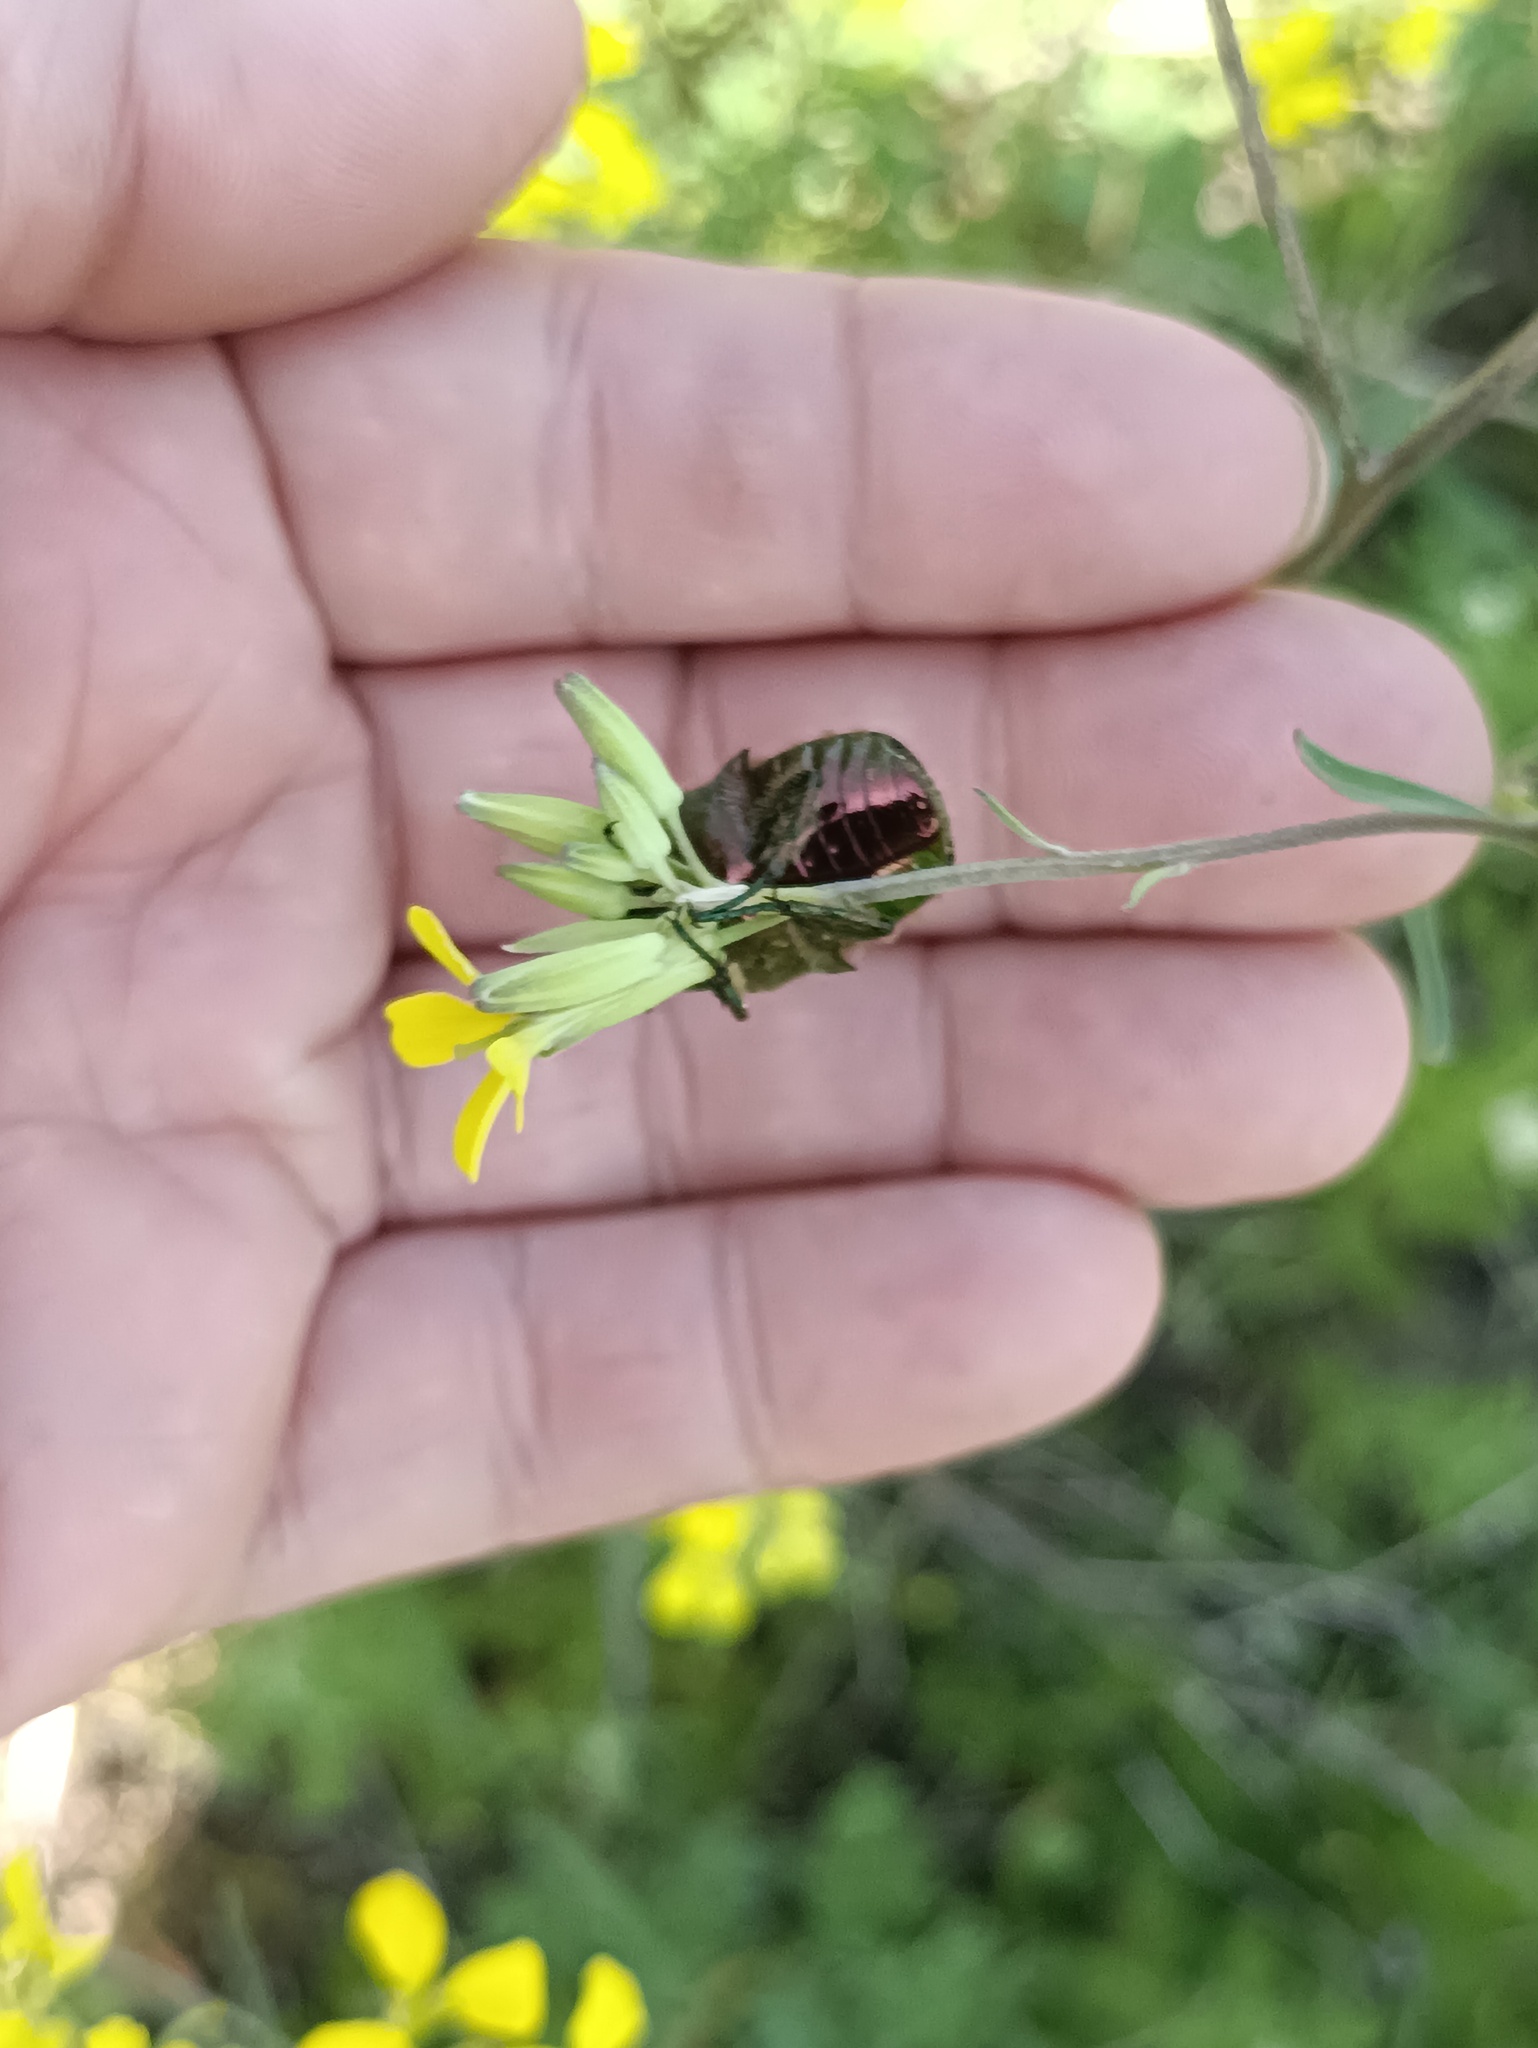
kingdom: Animalia
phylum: Arthropoda
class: Insecta
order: Coleoptera
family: Scarabaeidae
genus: Cetonia
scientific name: Cetonia aurata
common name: Rose chafer
